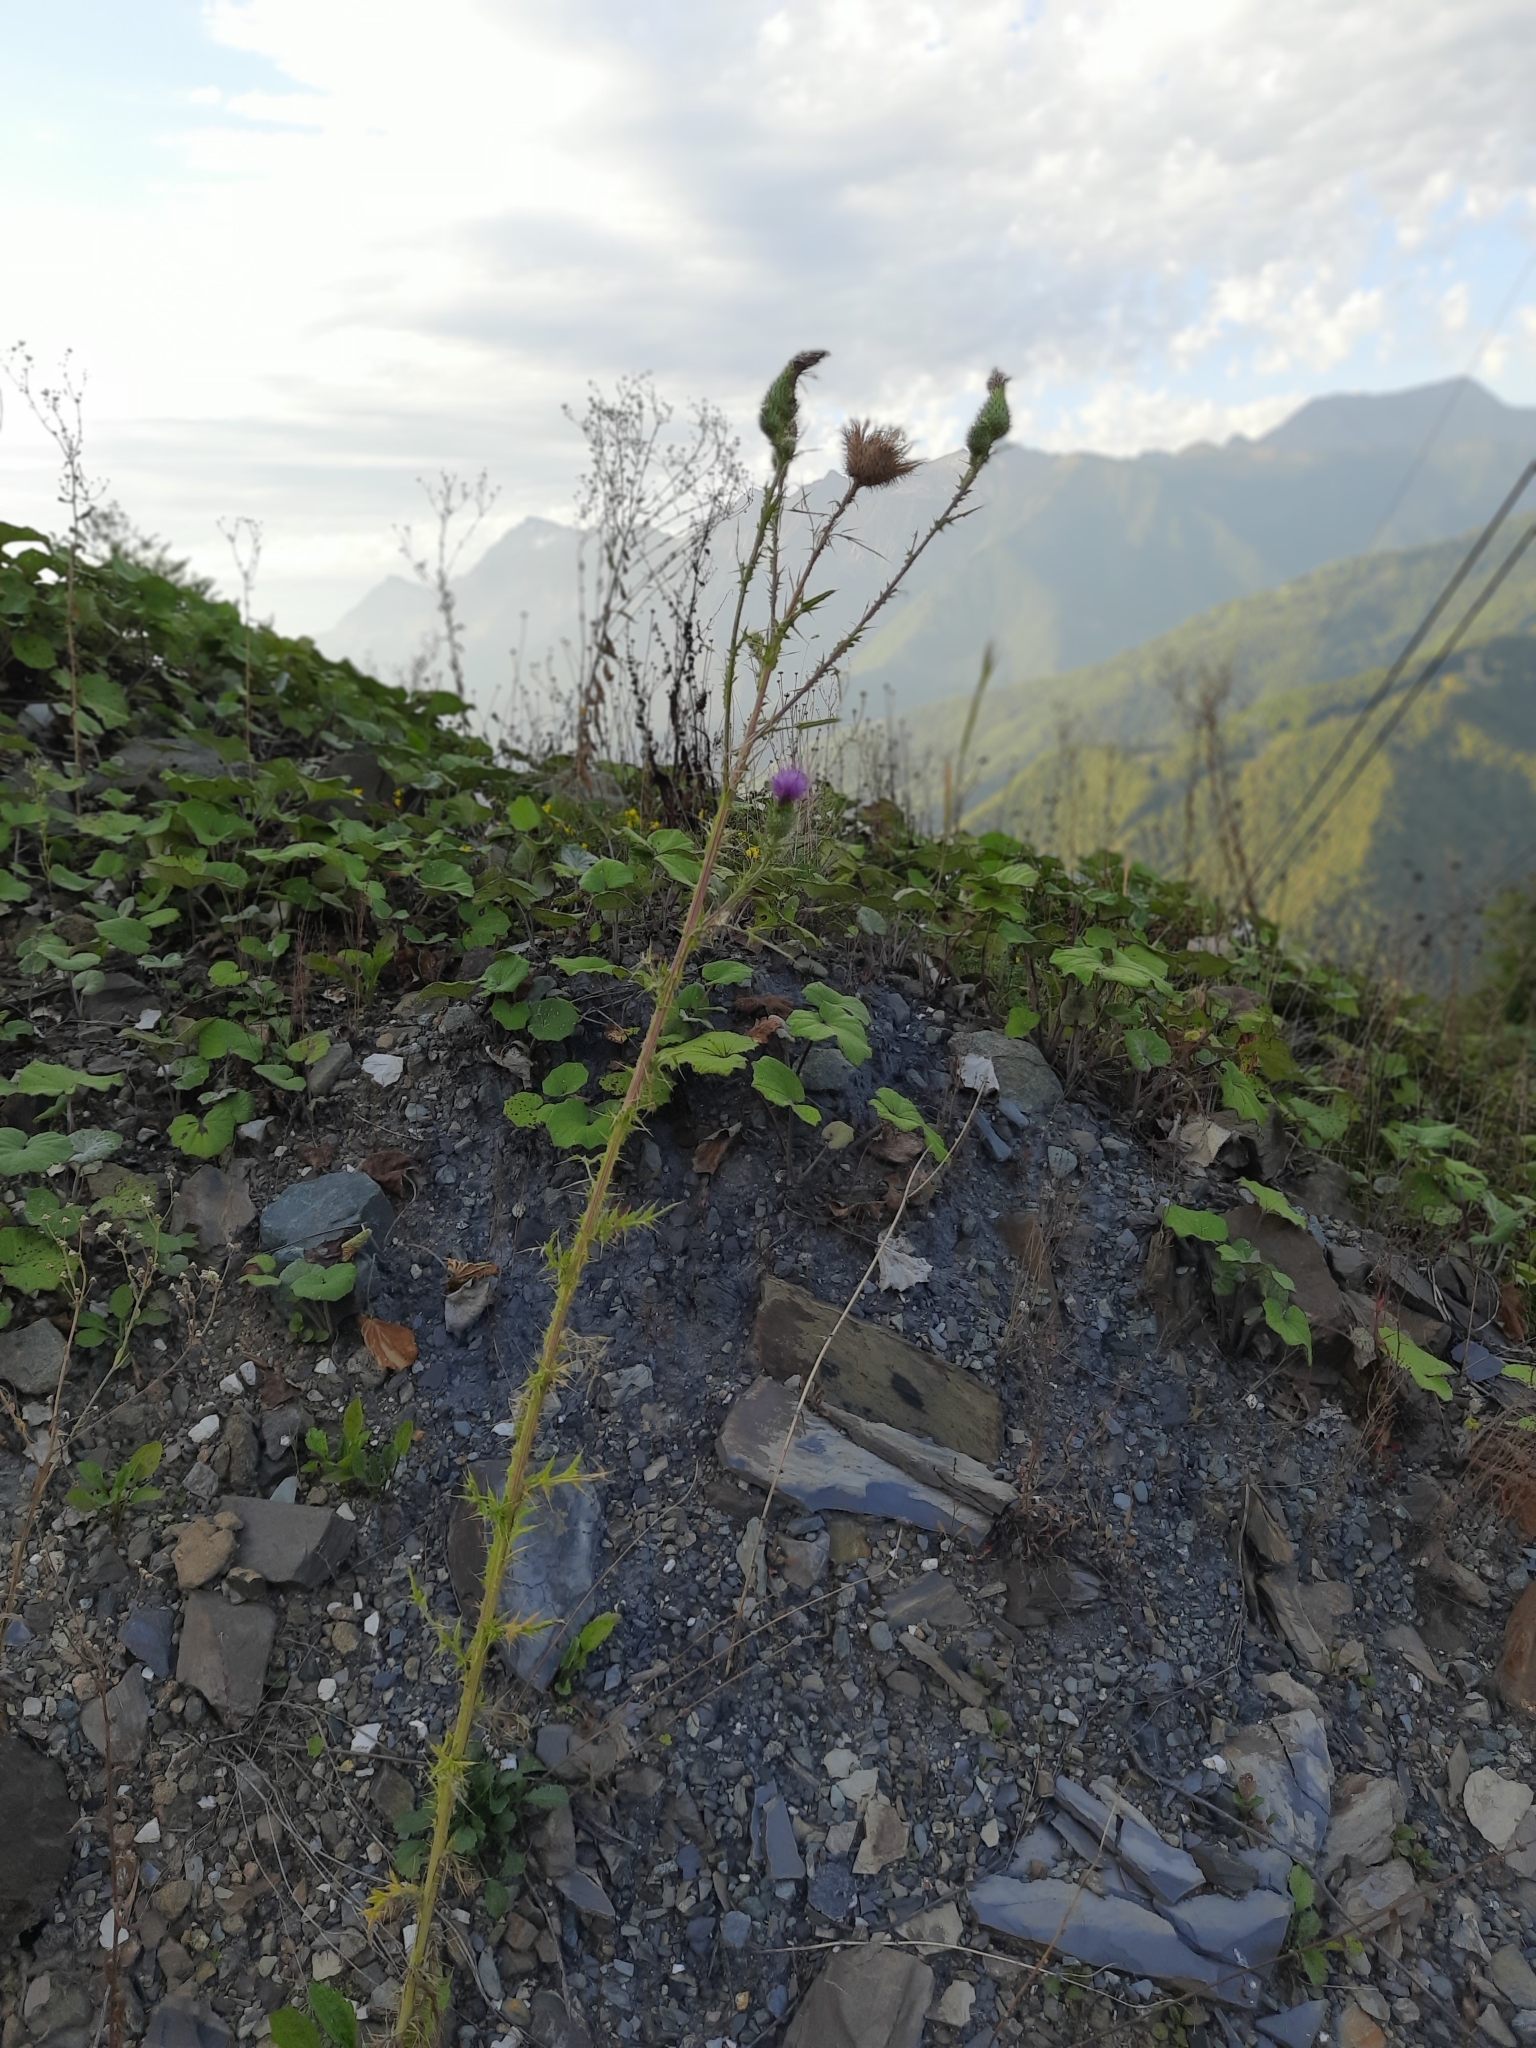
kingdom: Plantae
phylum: Tracheophyta
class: Magnoliopsida
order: Asterales
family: Asteraceae
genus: Cirsium
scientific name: Cirsium vulgare
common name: Bull thistle
